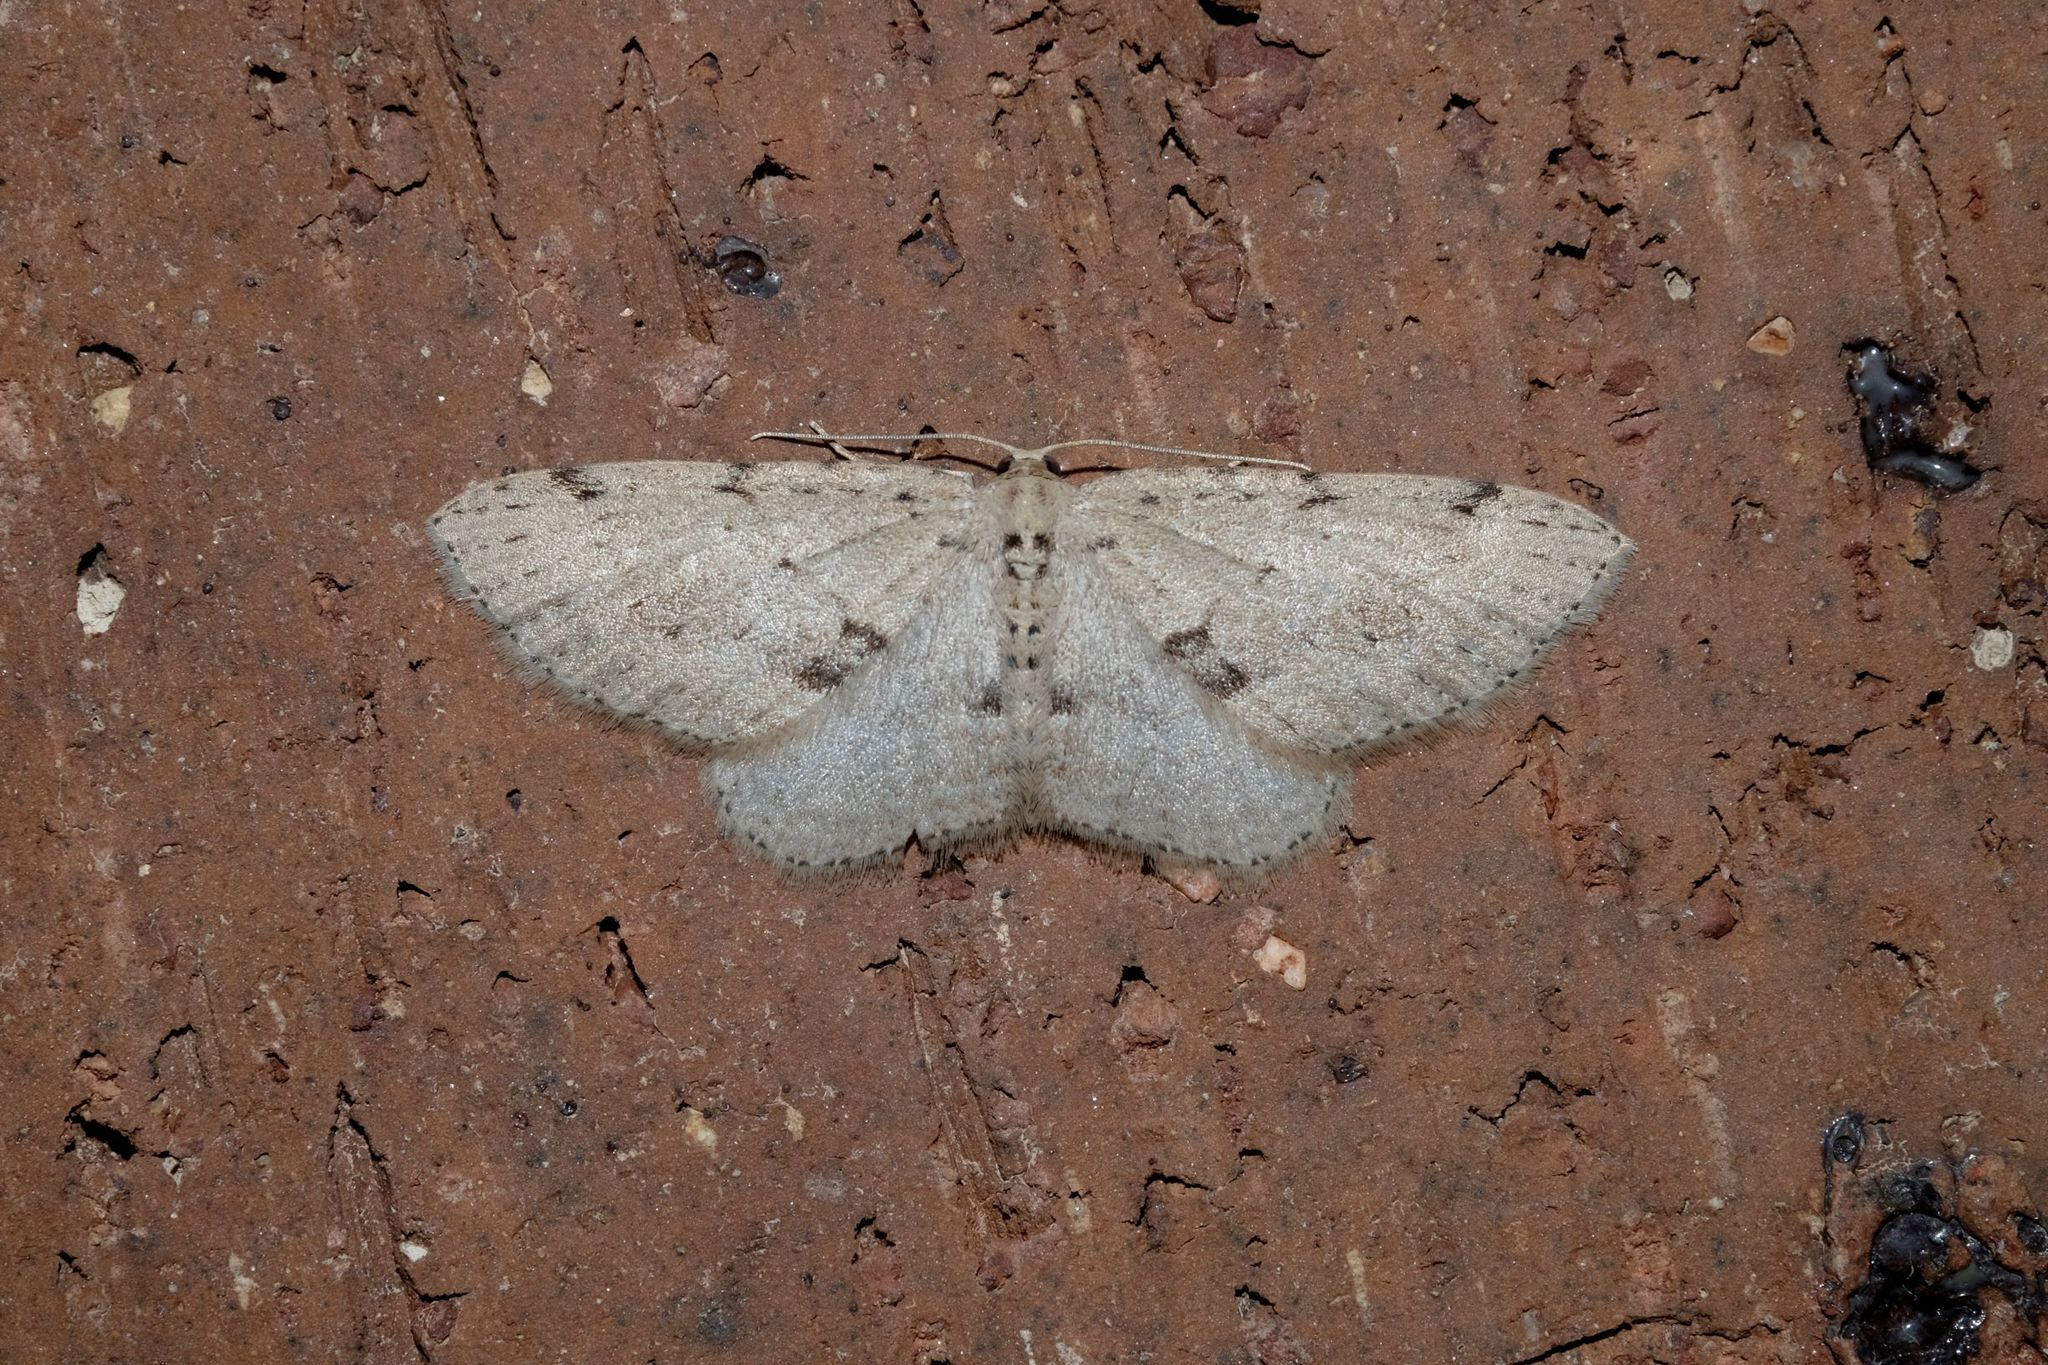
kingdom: Animalia
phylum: Arthropoda
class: Insecta
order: Lepidoptera
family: Geometridae
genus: Poecilasthena
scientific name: Poecilasthena scoliota
